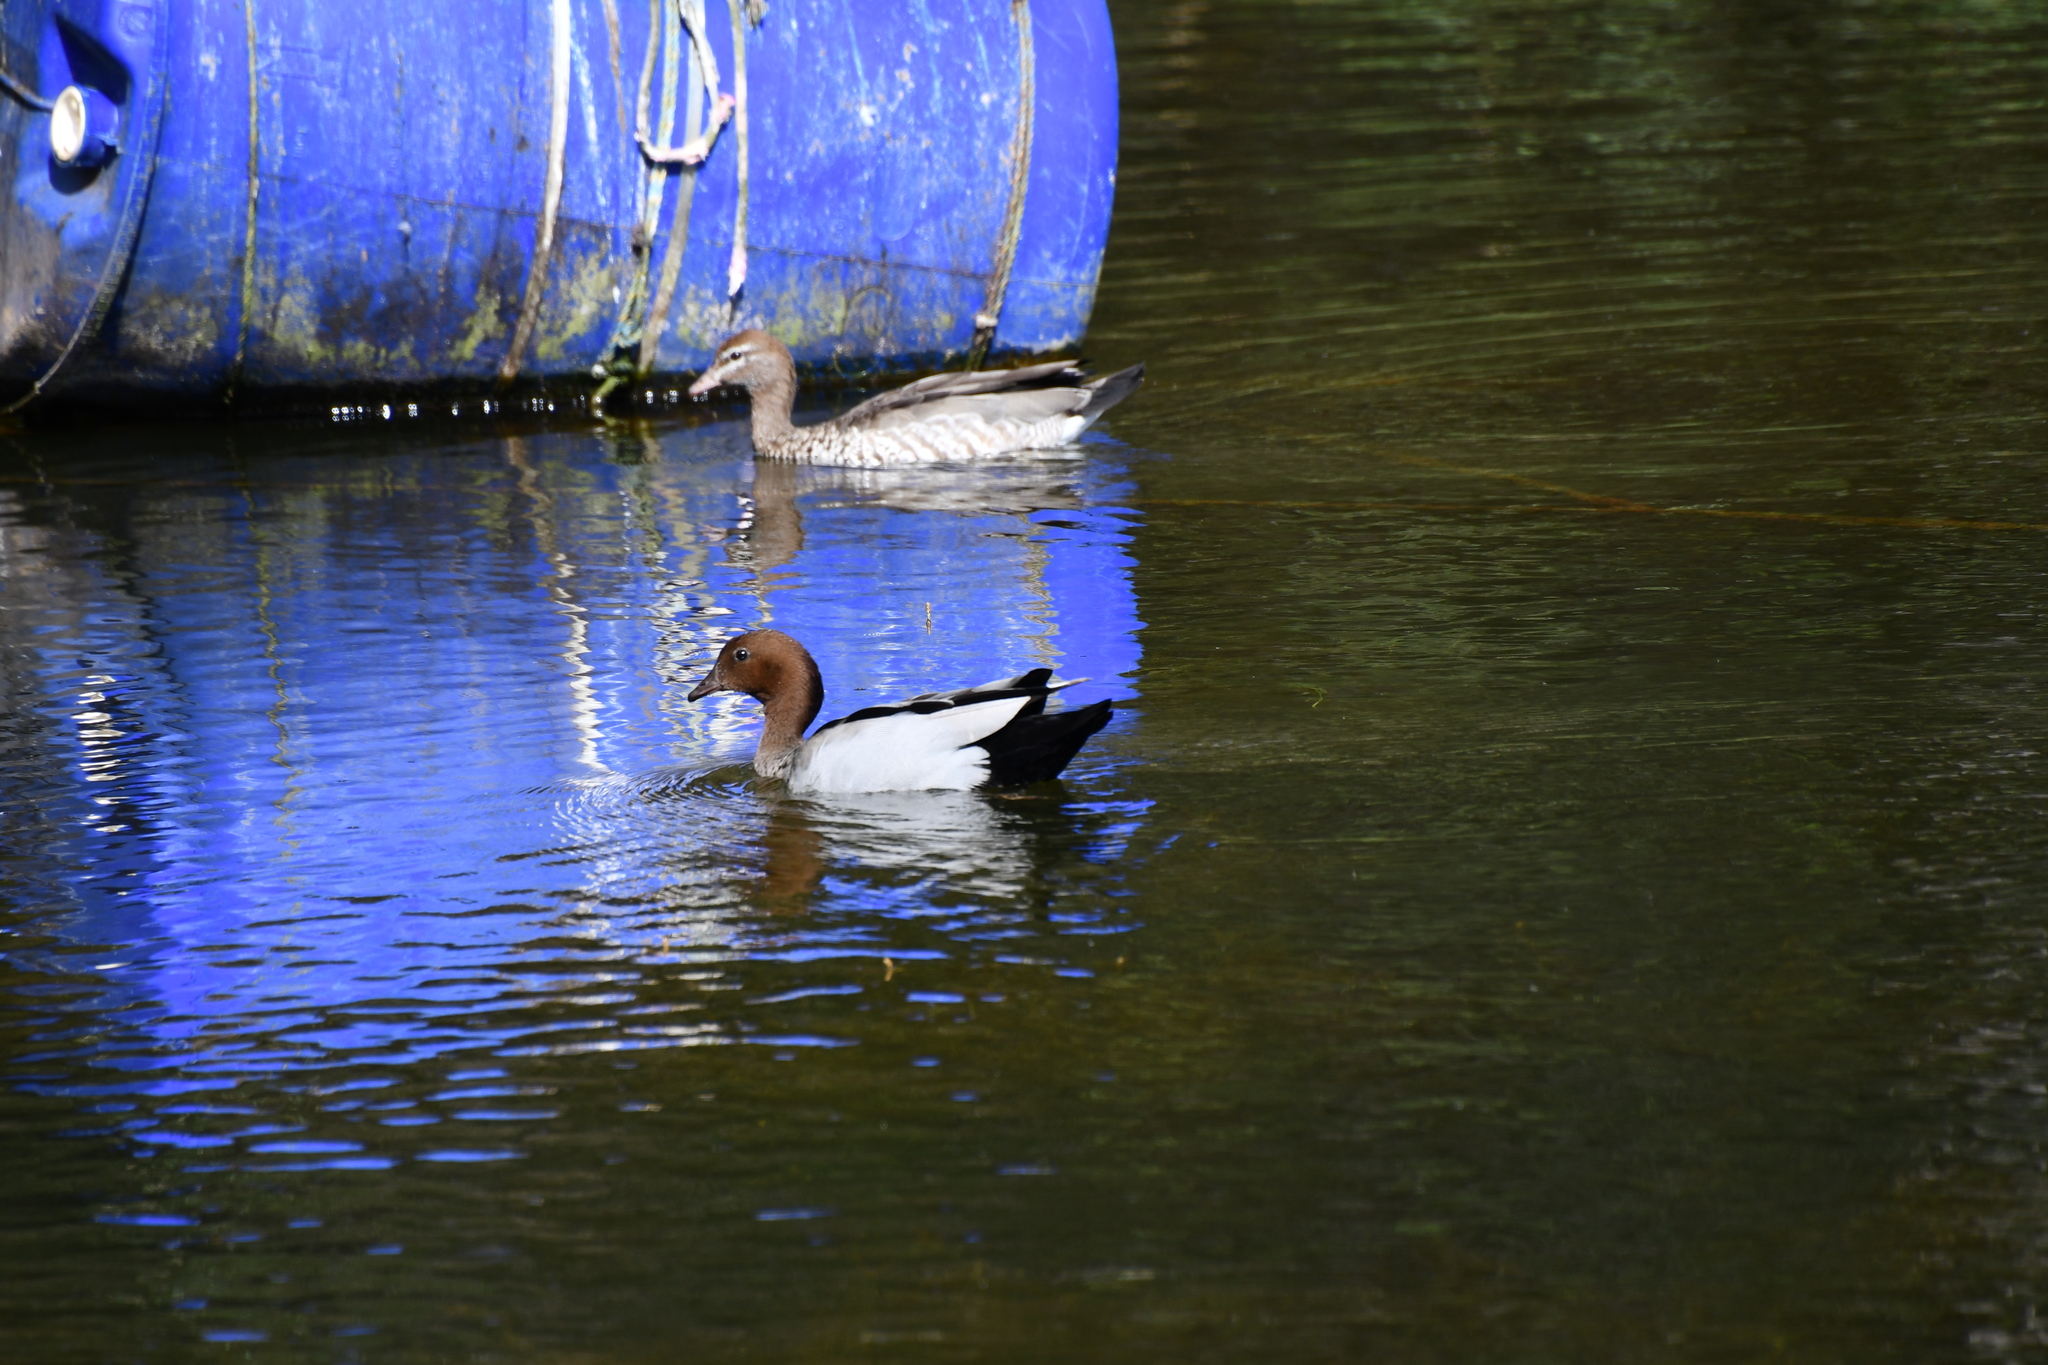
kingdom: Animalia
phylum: Chordata
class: Aves
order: Anseriformes
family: Anatidae
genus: Chenonetta
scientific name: Chenonetta jubata
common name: Maned duck
